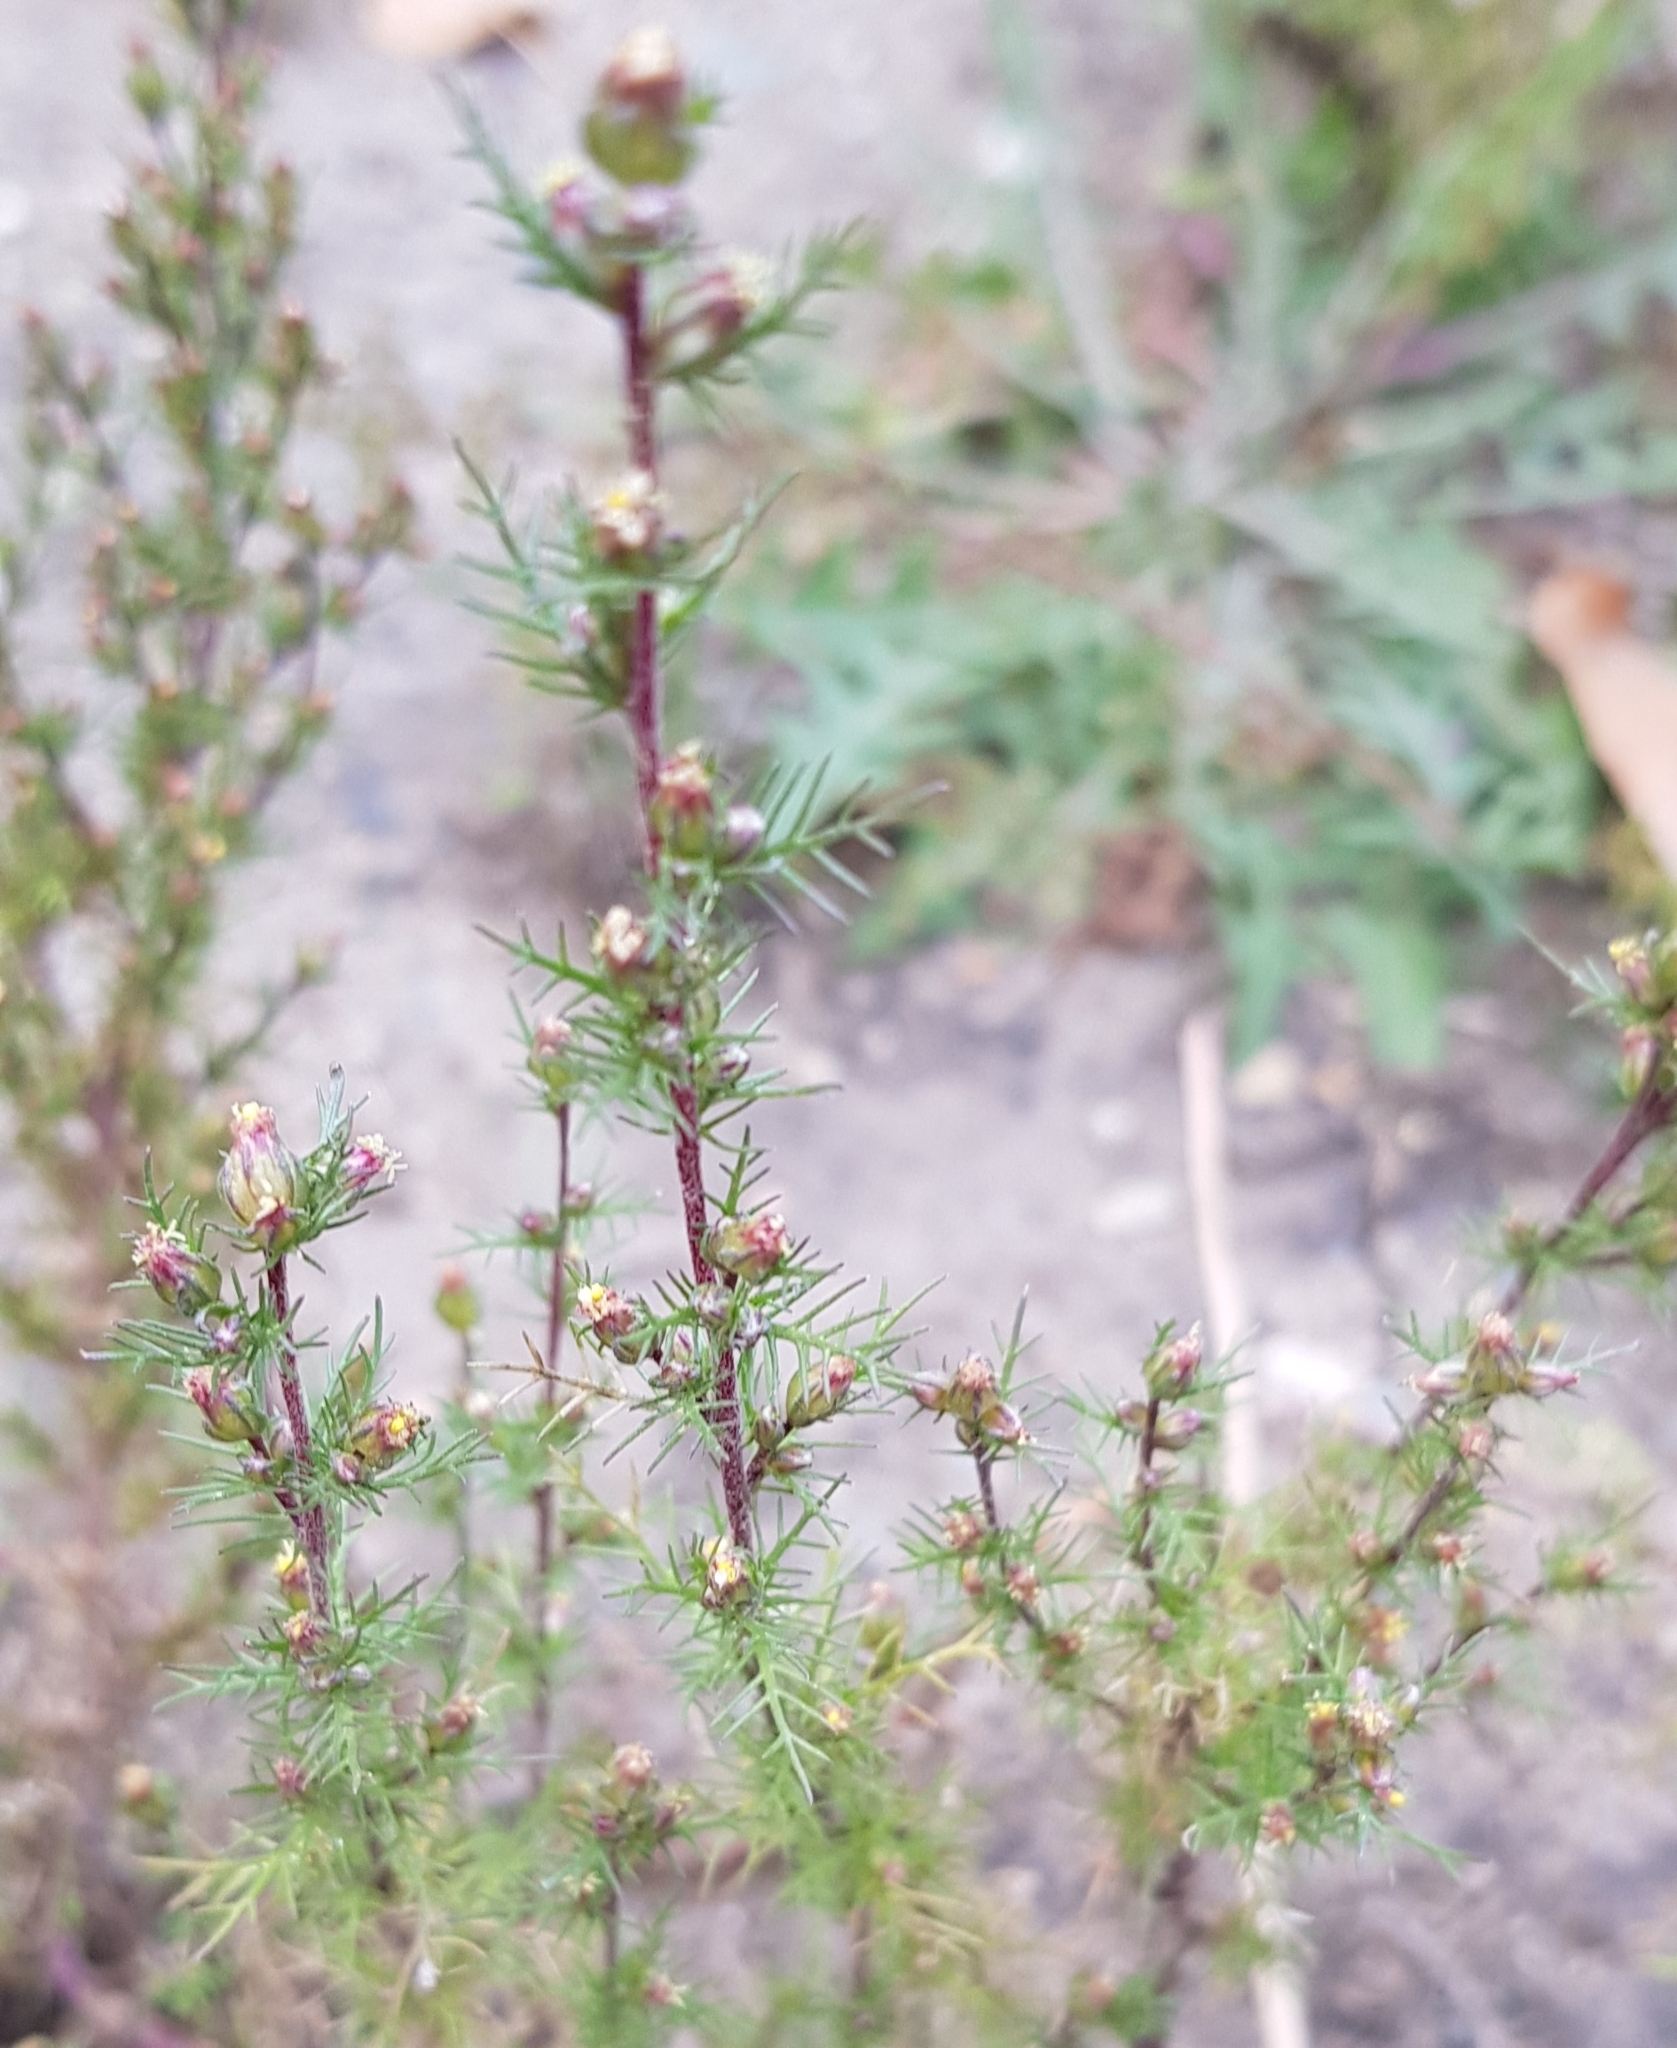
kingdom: Plantae
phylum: Tracheophyta
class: Magnoliopsida
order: Asterales
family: Asteraceae
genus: Neopallasia
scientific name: Neopallasia pectinata
